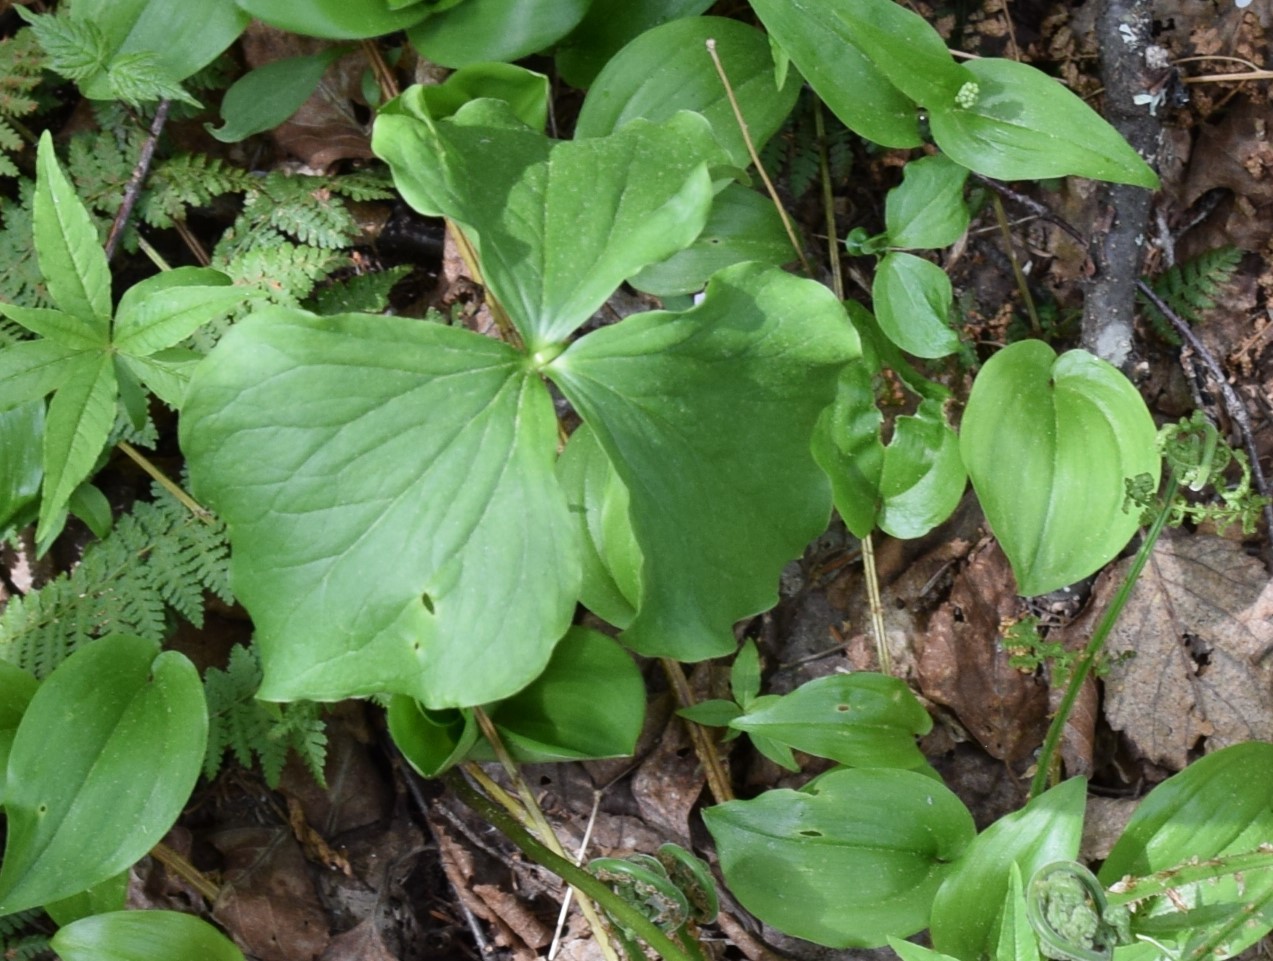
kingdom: Plantae
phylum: Tracheophyta
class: Liliopsida
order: Liliales
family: Melanthiaceae
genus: Trillium
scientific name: Trillium cernuum
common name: Nodding trillium
